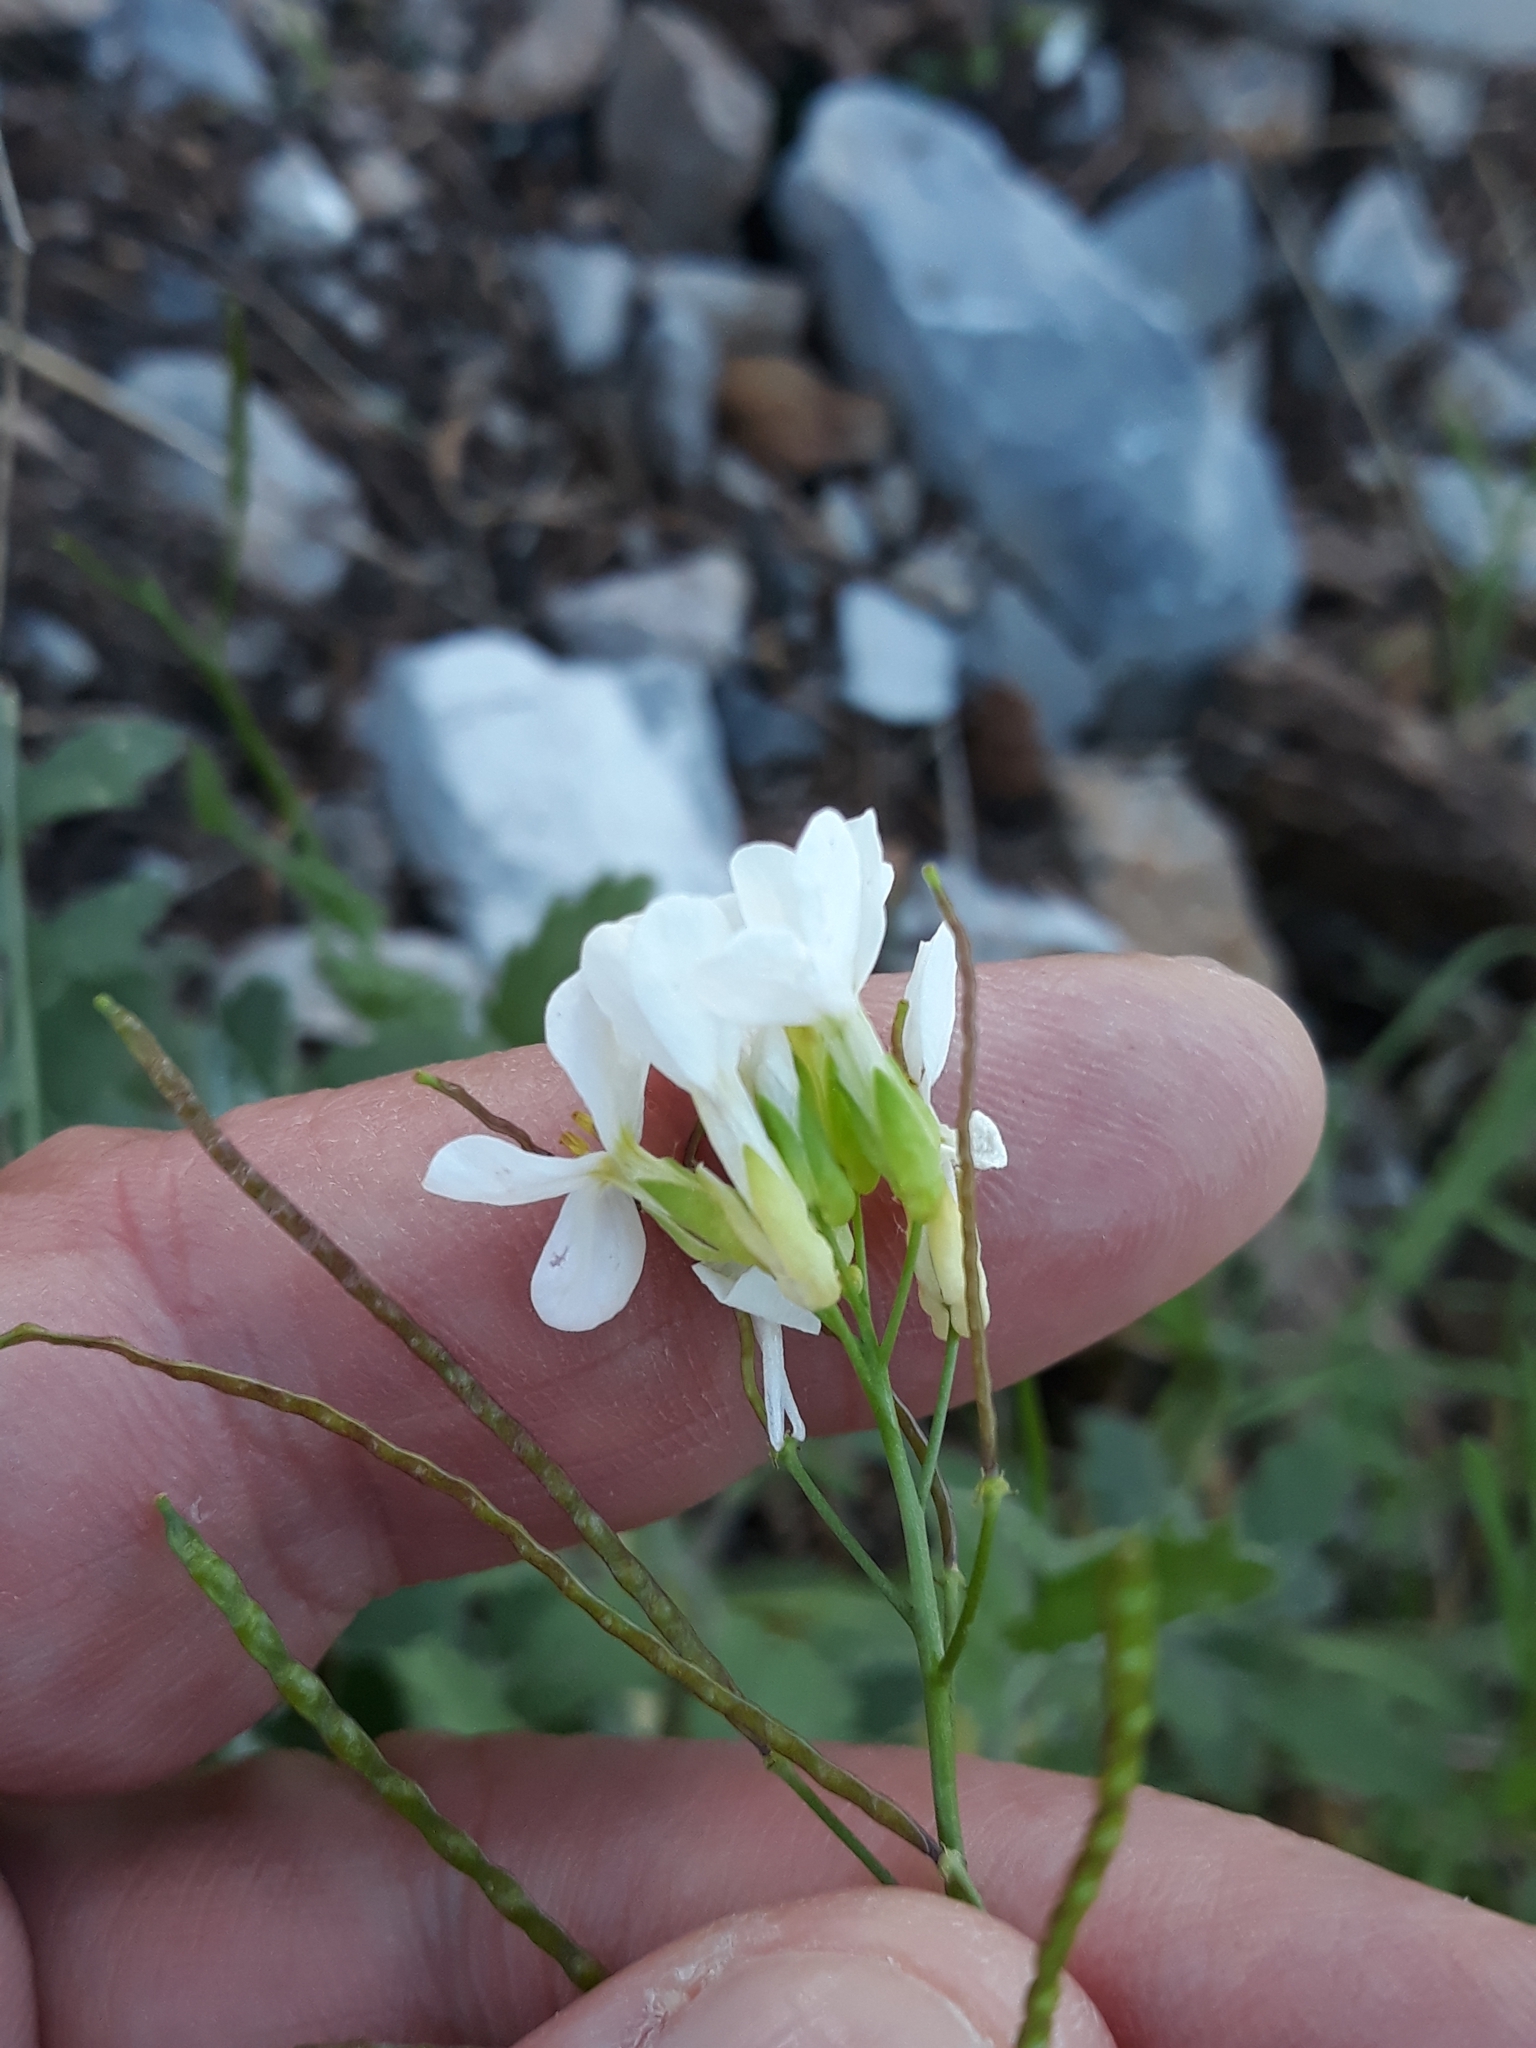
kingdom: Plantae
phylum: Tracheophyta
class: Magnoliopsida
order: Brassicales
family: Brassicaceae
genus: Arabis
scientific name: Arabis caucasica
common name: Gray rockcress
